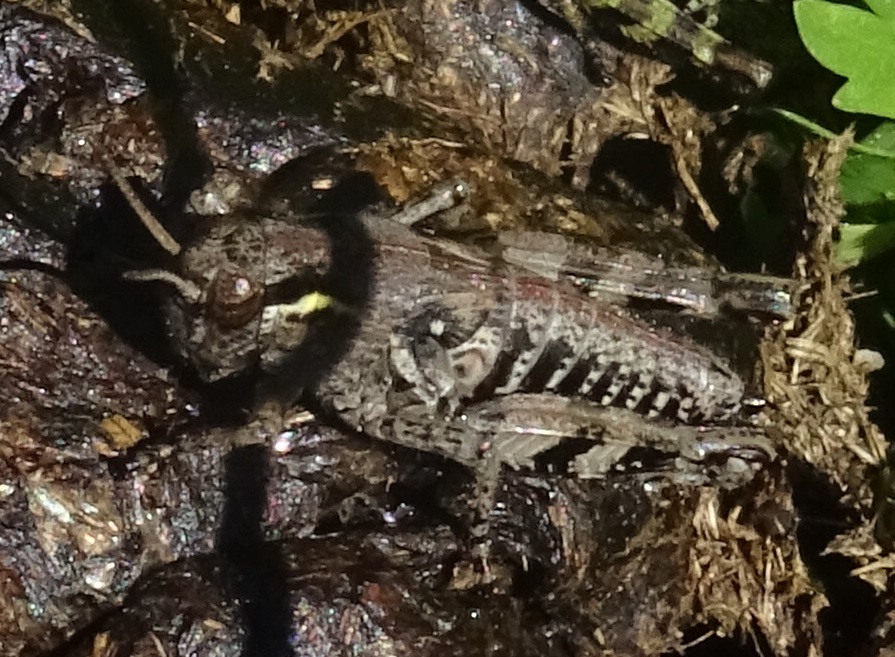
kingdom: Animalia
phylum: Arthropoda
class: Insecta
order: Orthoptera
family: Acrididae
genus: Bohemanella
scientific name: Bohemanella frigida
